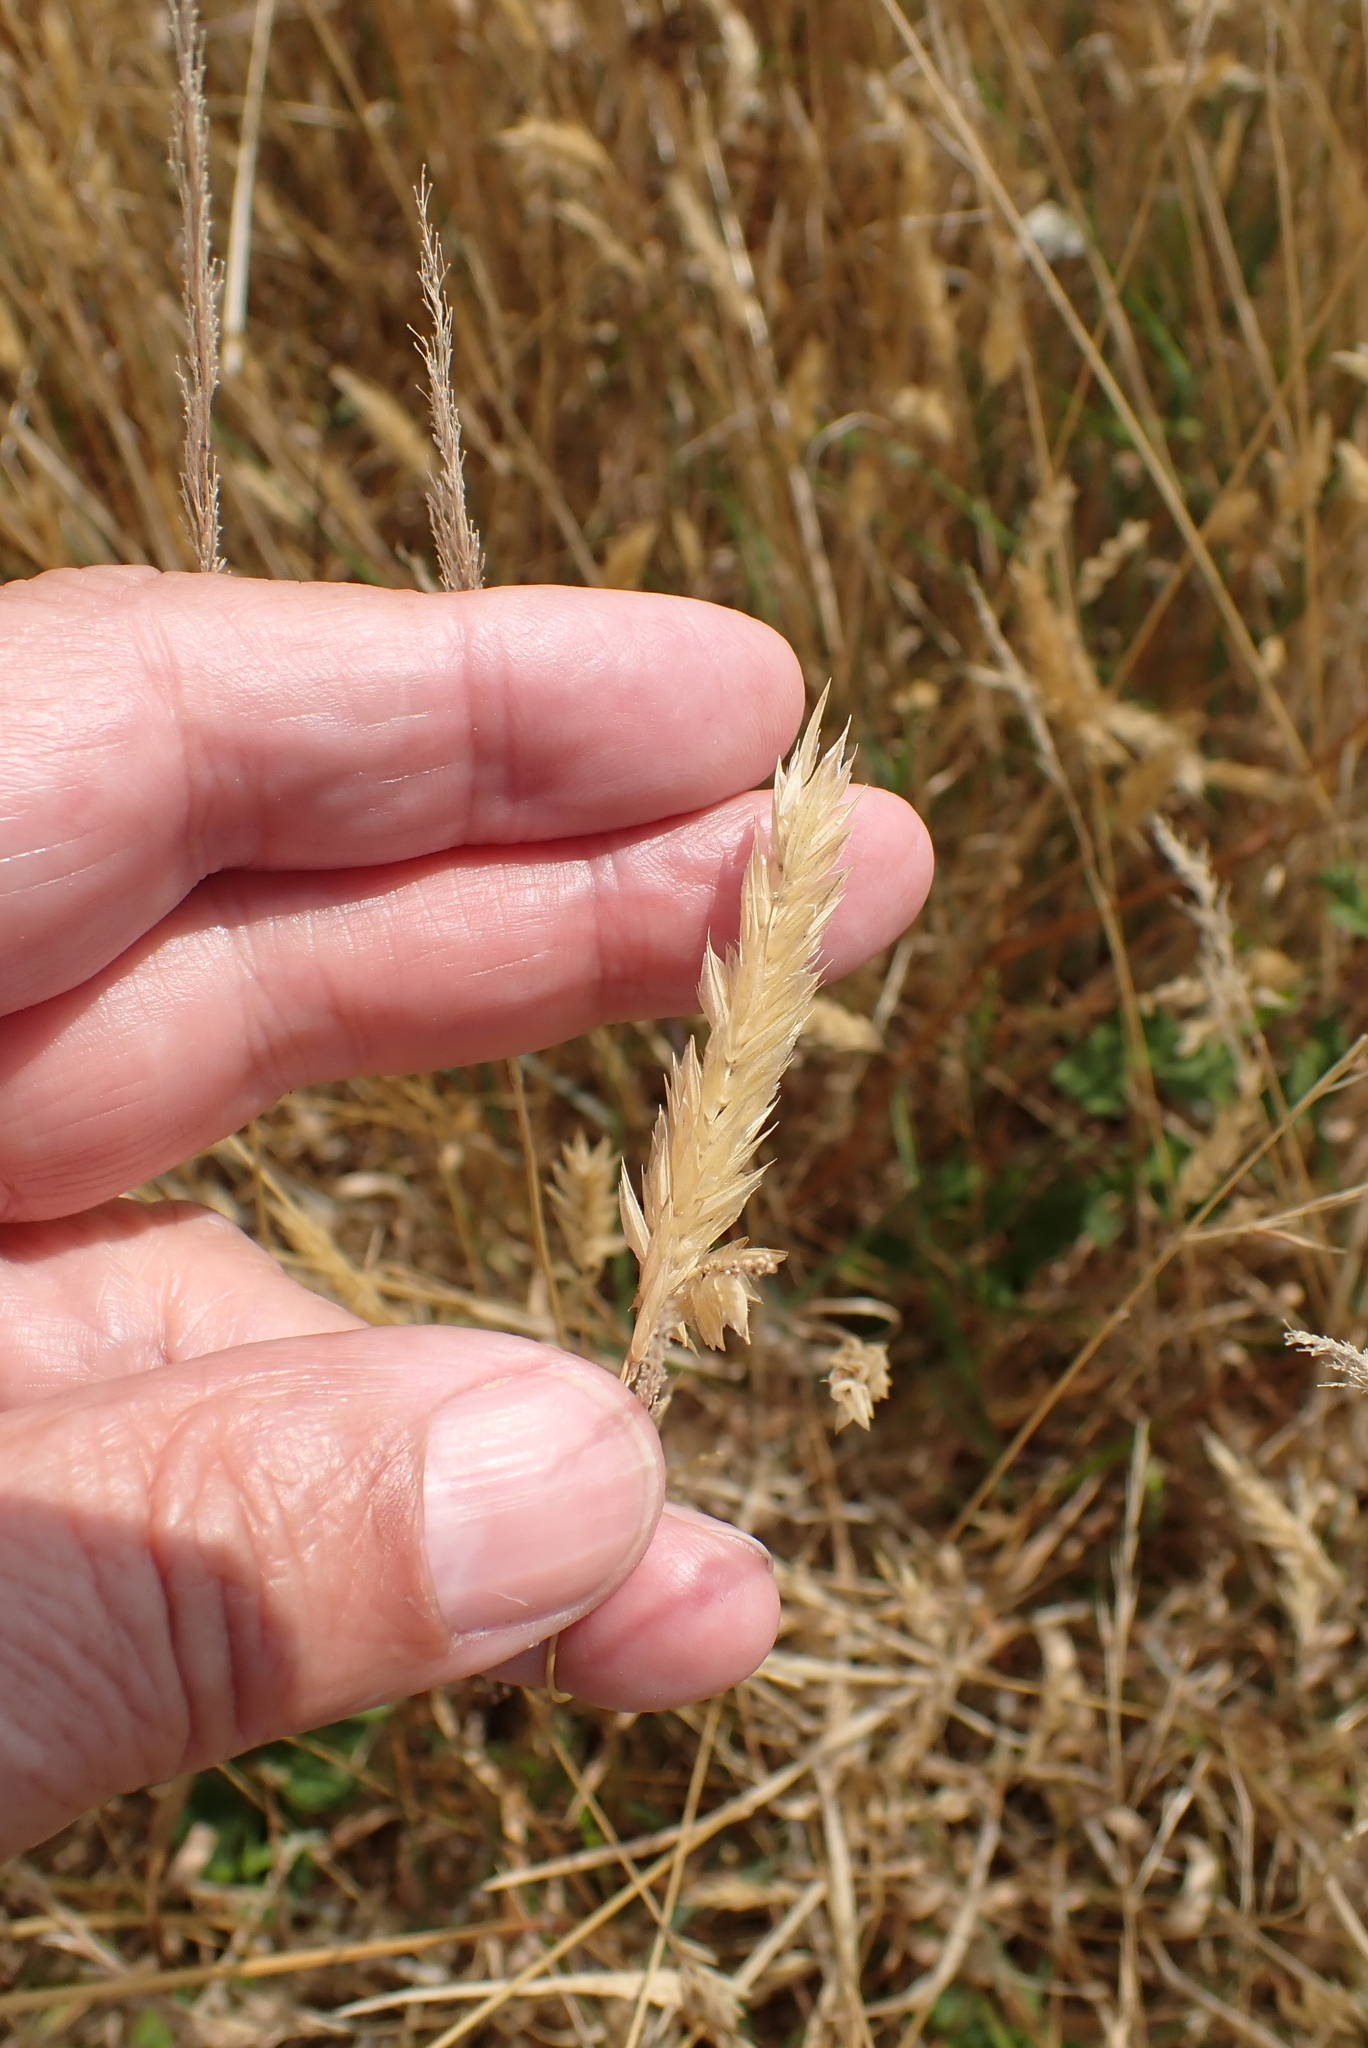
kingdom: Plantae
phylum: Tracheophyta
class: Liliopsida
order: Poales
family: Poaceae
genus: Anthoxanthum
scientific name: Anthoxanthum odoratum
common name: Sweet vernalgrass
